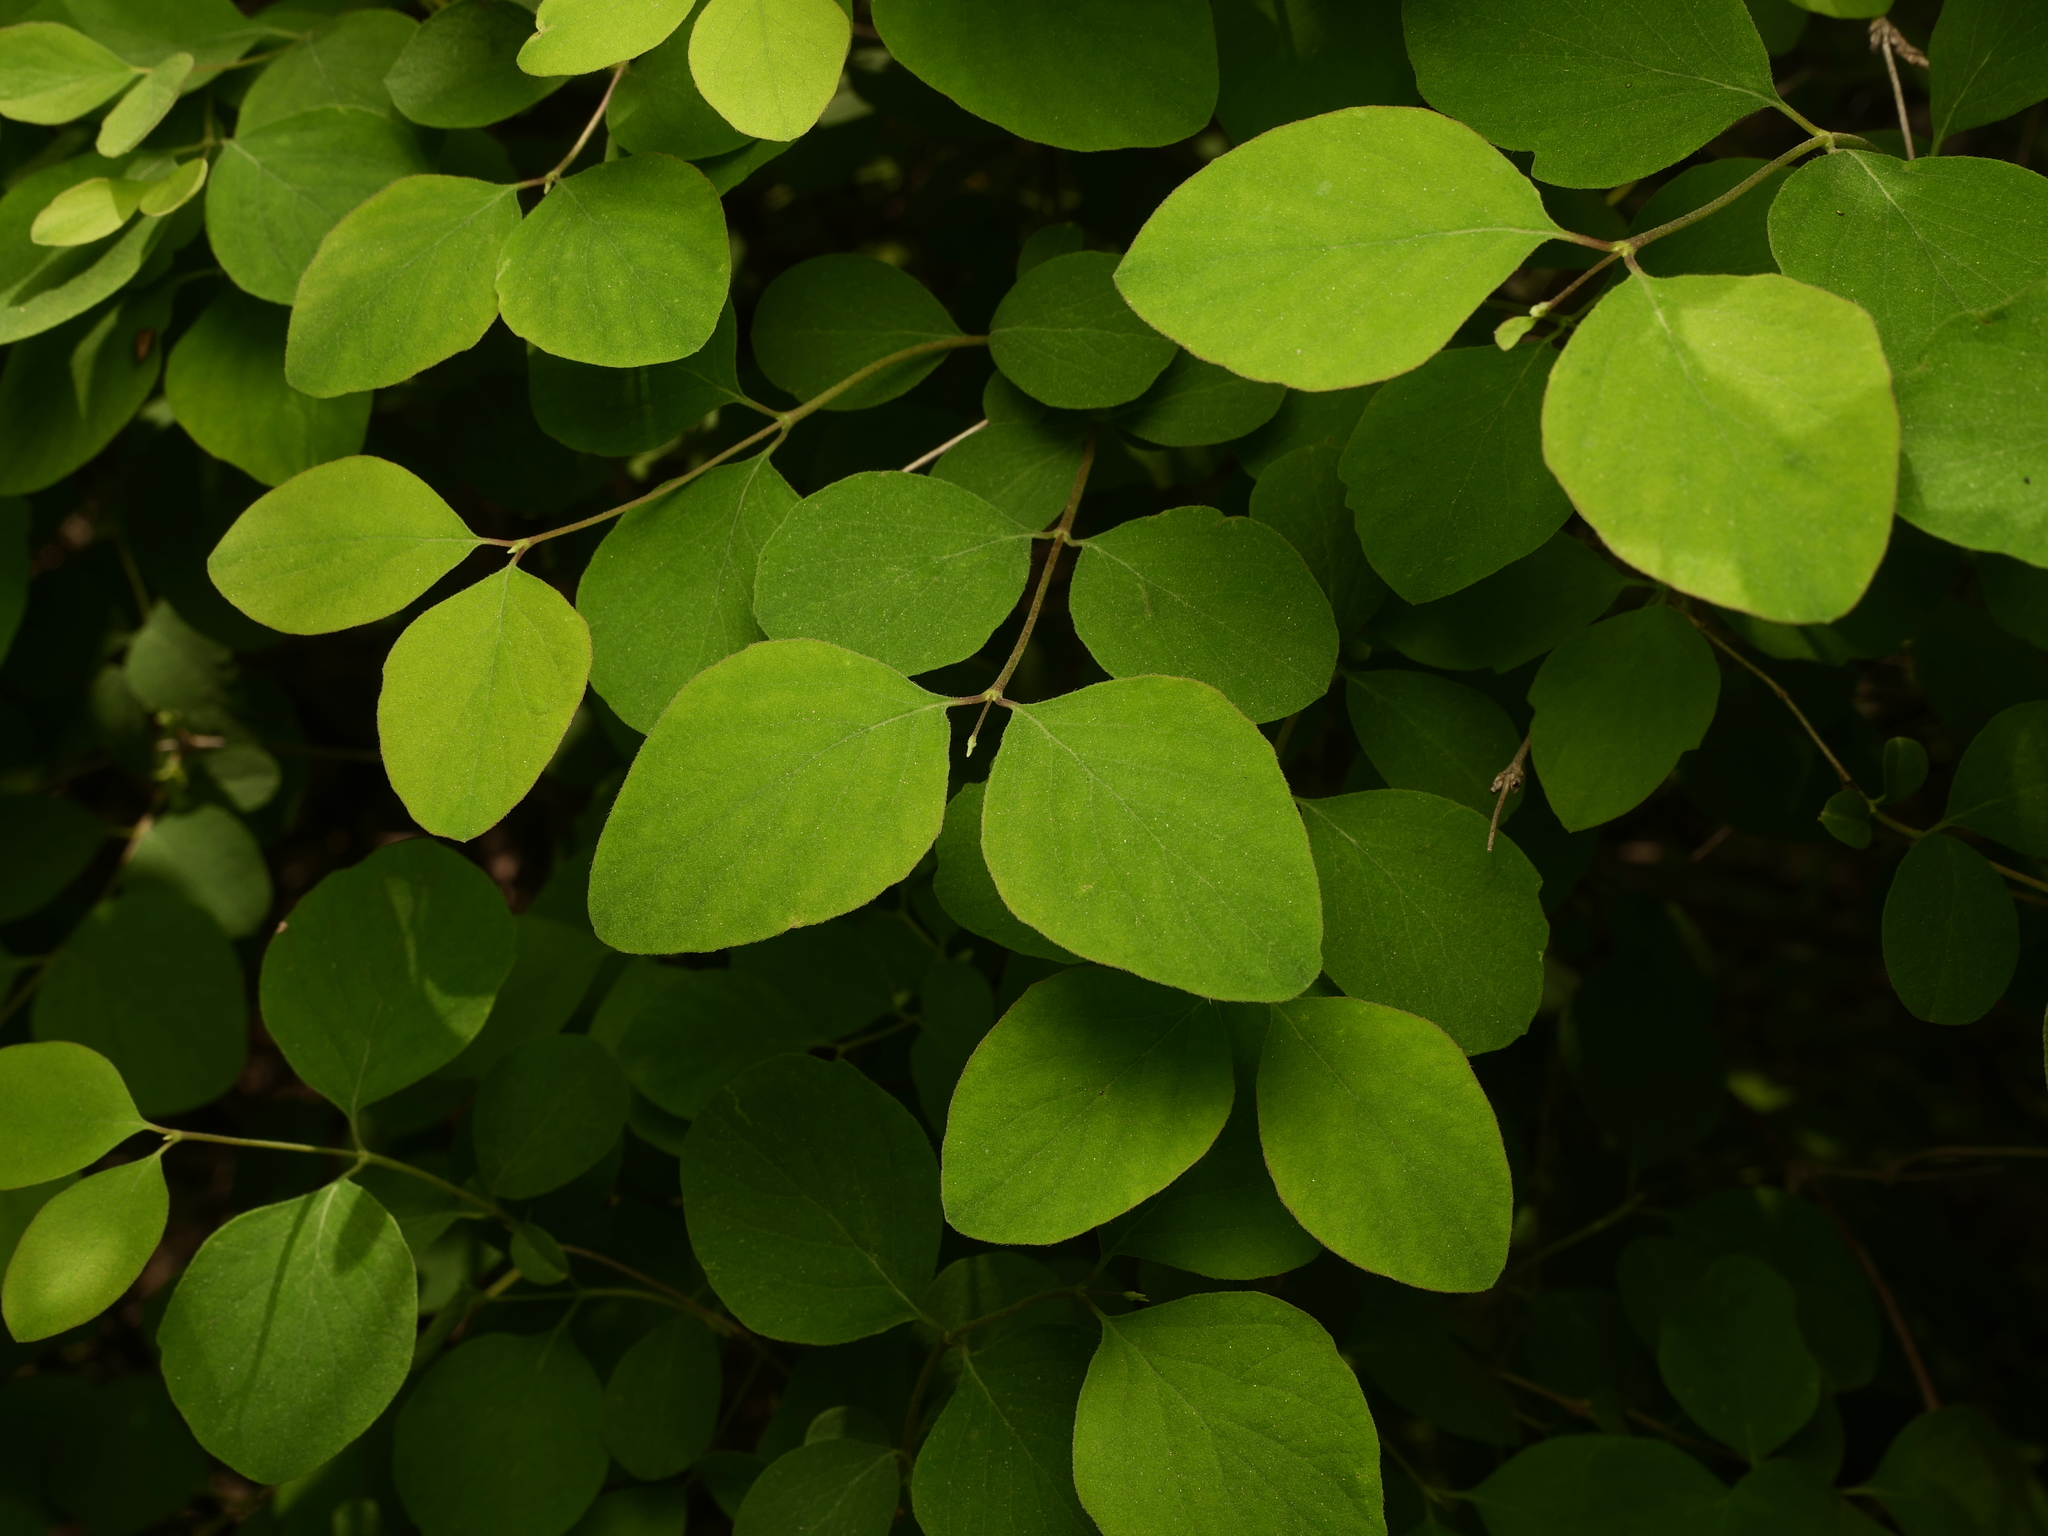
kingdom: Plantae
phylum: Tracheophyta
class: Magnoliopsida
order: Dipsacales
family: Caprifoliaceae
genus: Symphoricarpos
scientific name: Symphoricarpos albus
